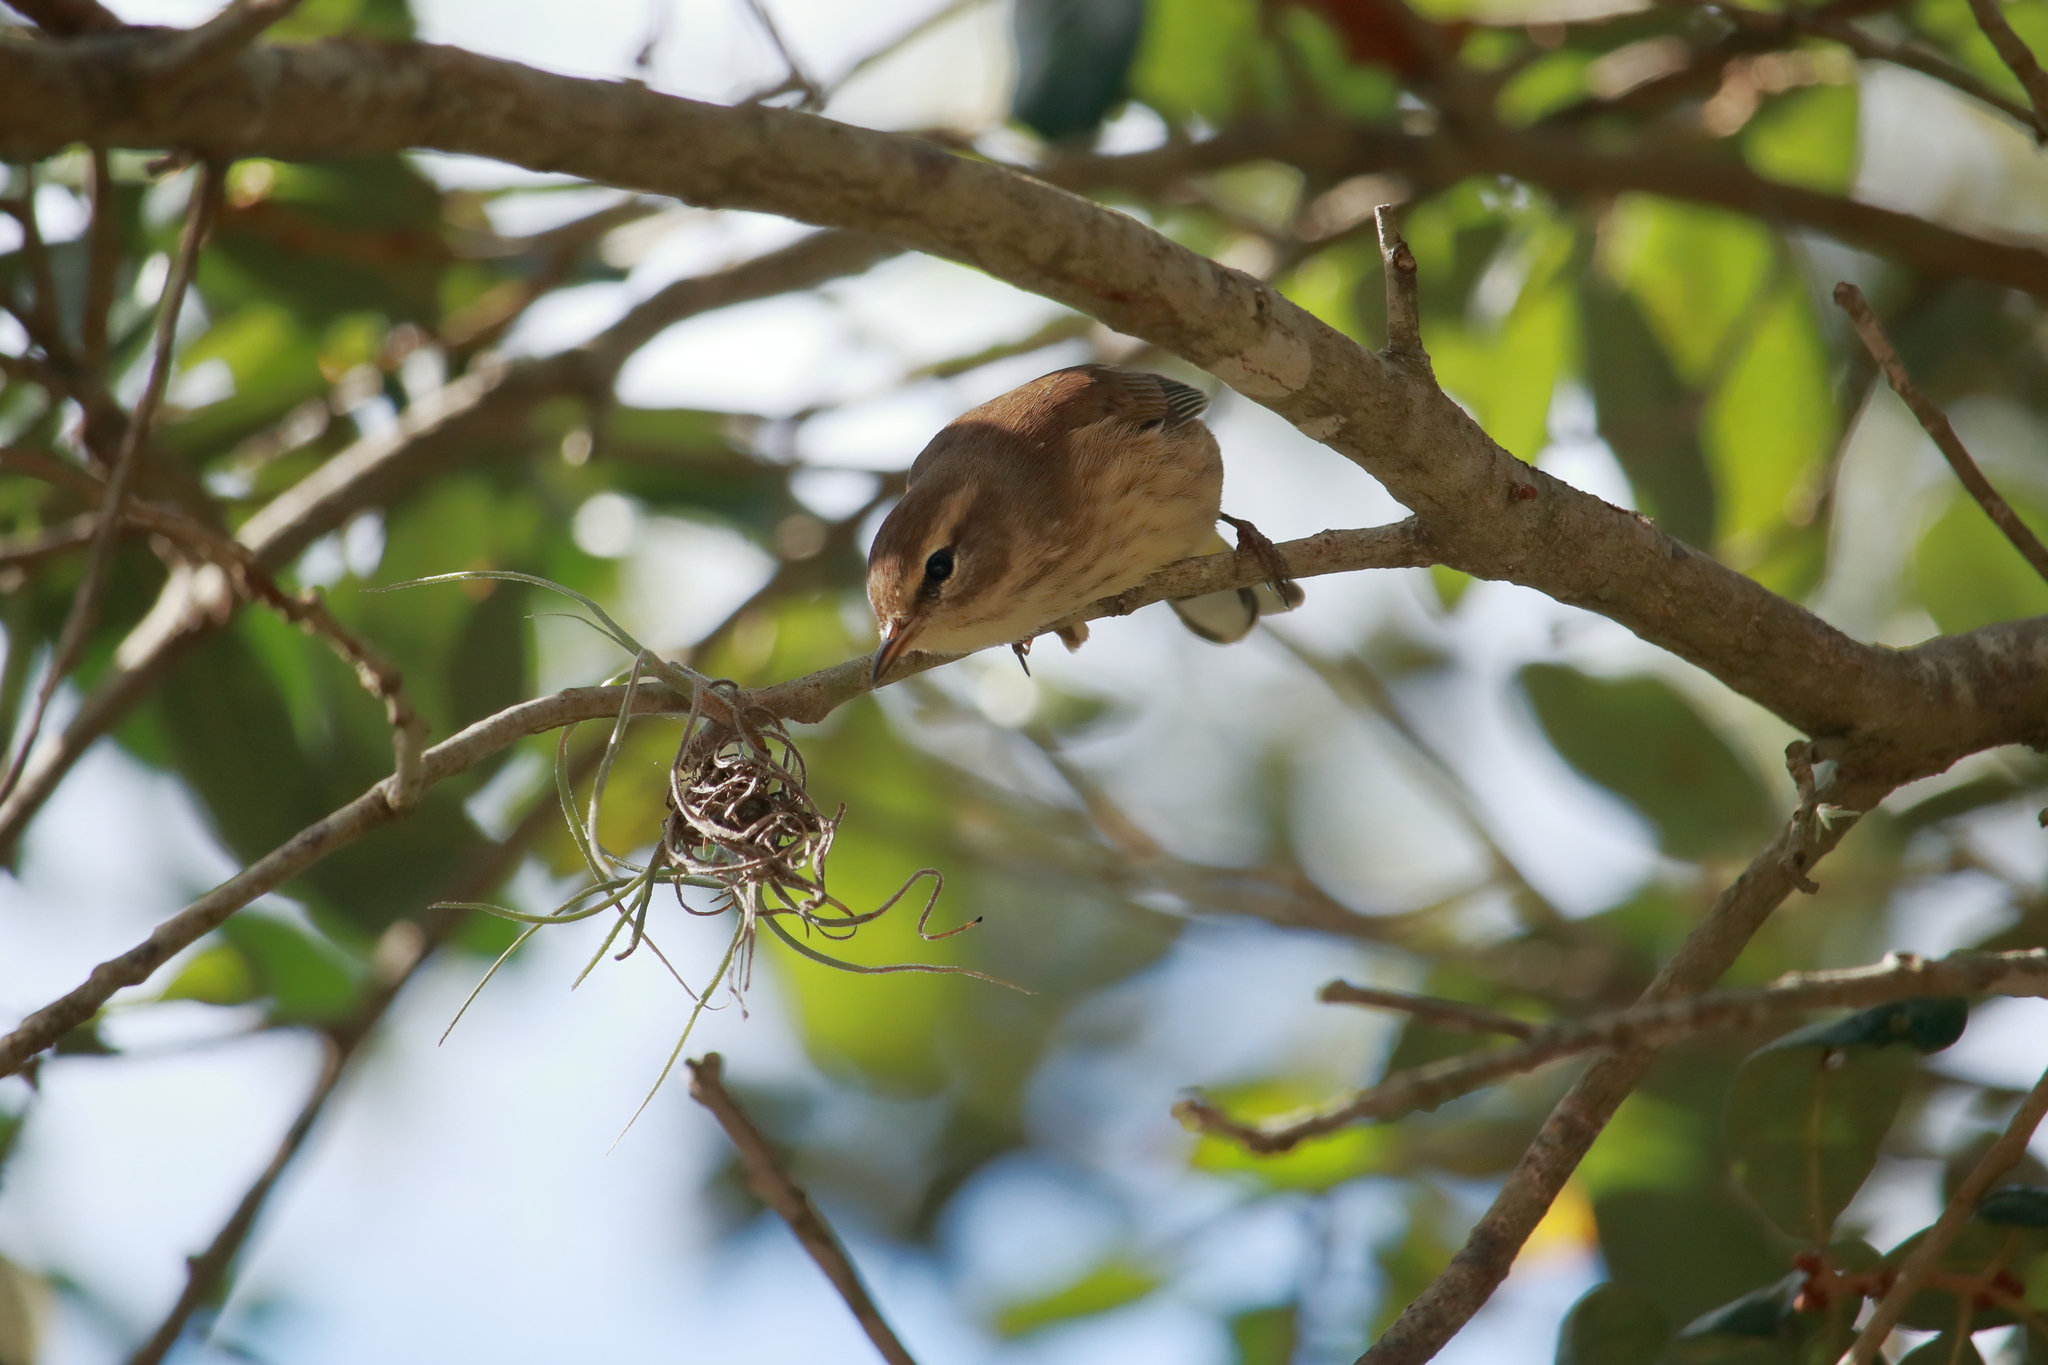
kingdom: Animalia
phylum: Chordata
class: Aves
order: Passeriformes
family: Parulidae
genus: Setophaga
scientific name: Setophaga palmarum
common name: Palm warbler
